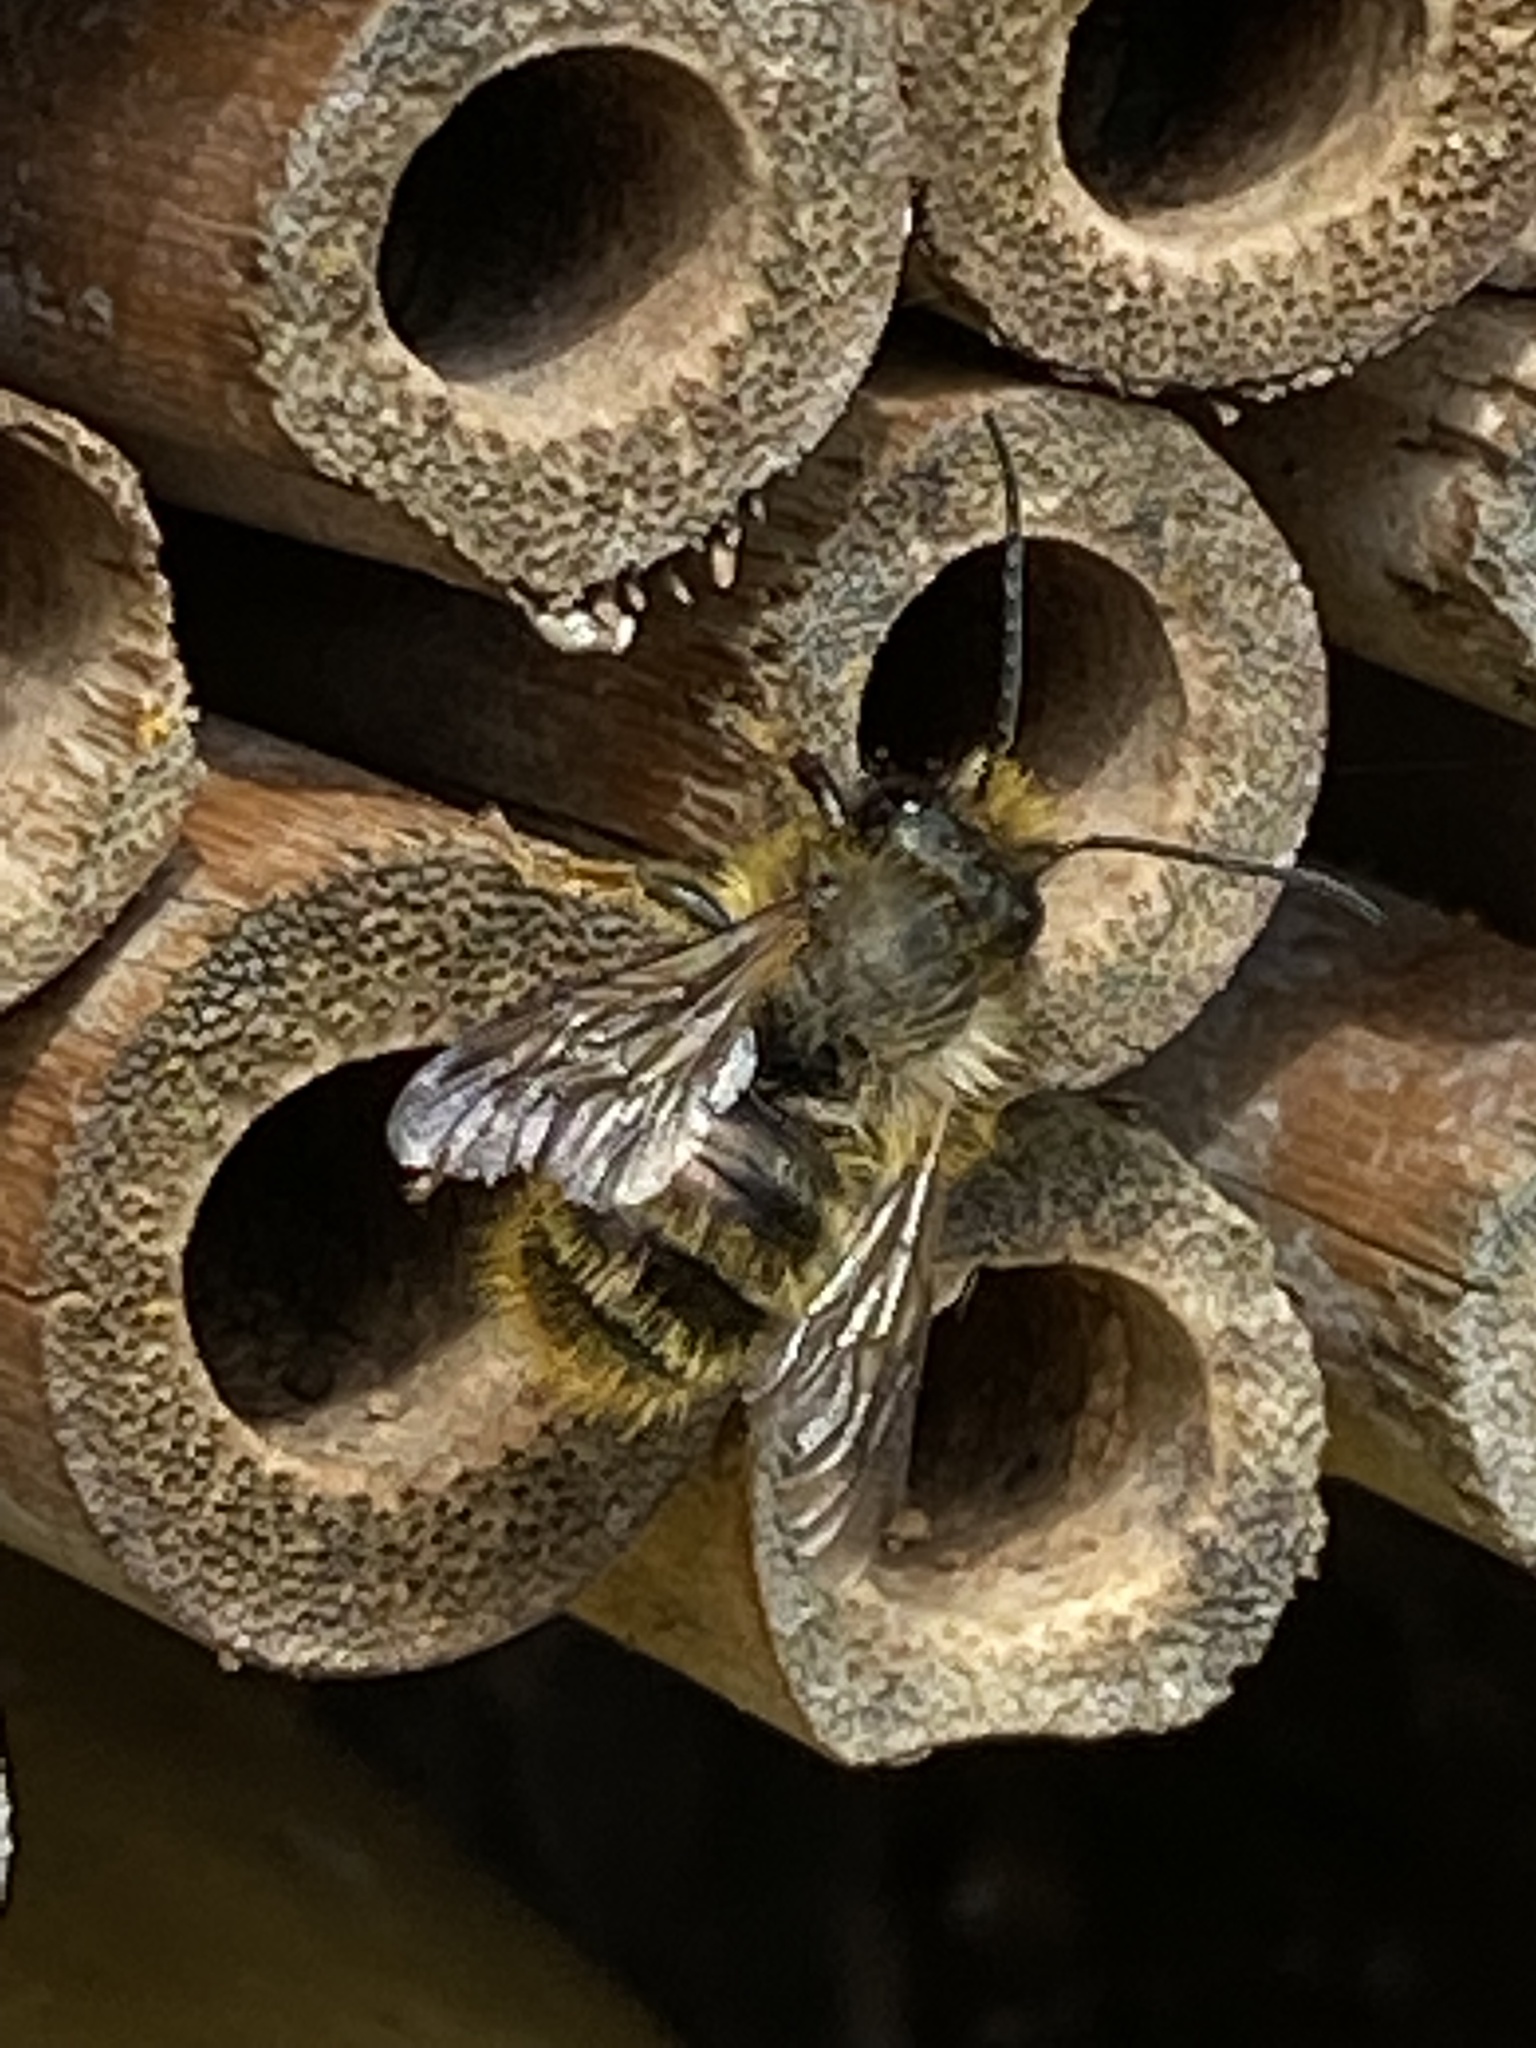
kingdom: Animalia
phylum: Arthropoda
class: Insecta
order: Hymenoptera
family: Megachilidae
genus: Osmia
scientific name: Osmia bicornis
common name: Red mason bee
